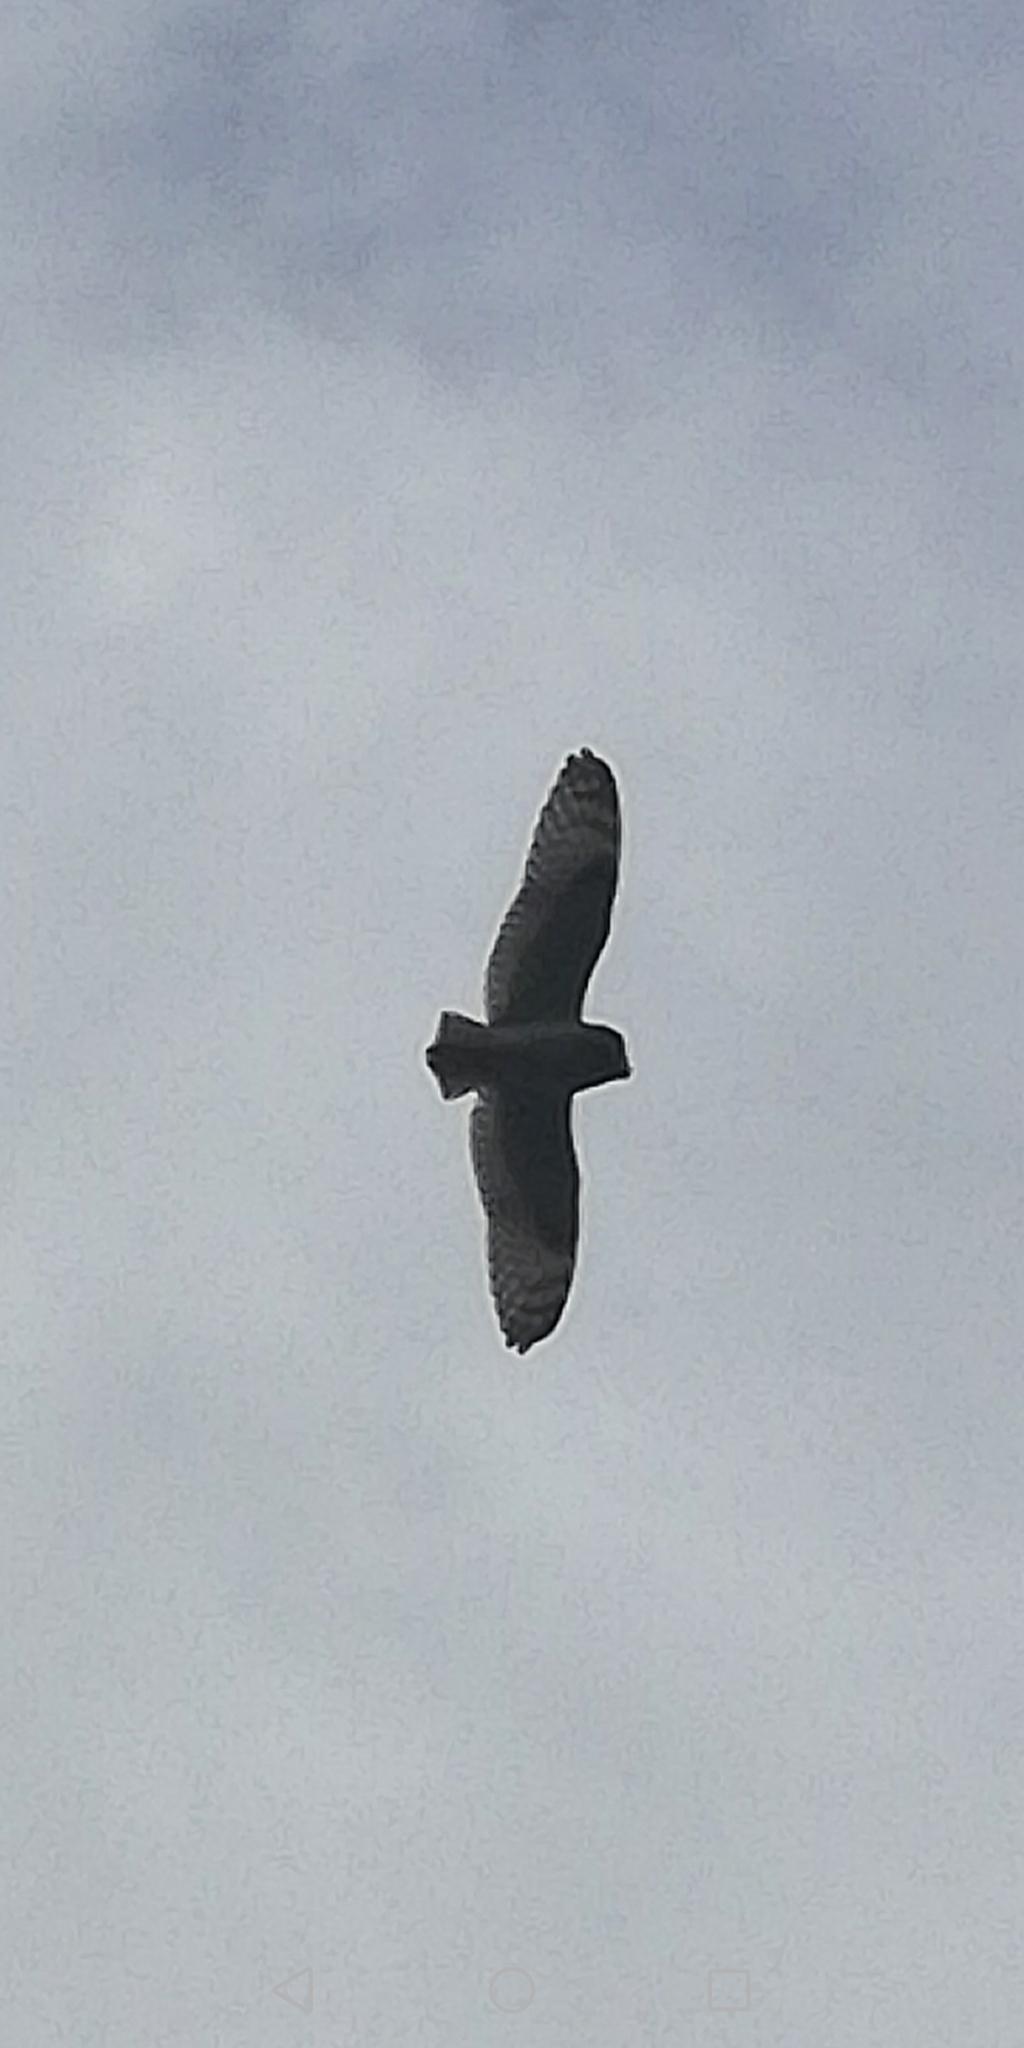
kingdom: Animalia
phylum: Chordata
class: Aves
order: Strigiformes
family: Strigidae
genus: Asio
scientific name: Asio otus
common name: Long-eared owl
